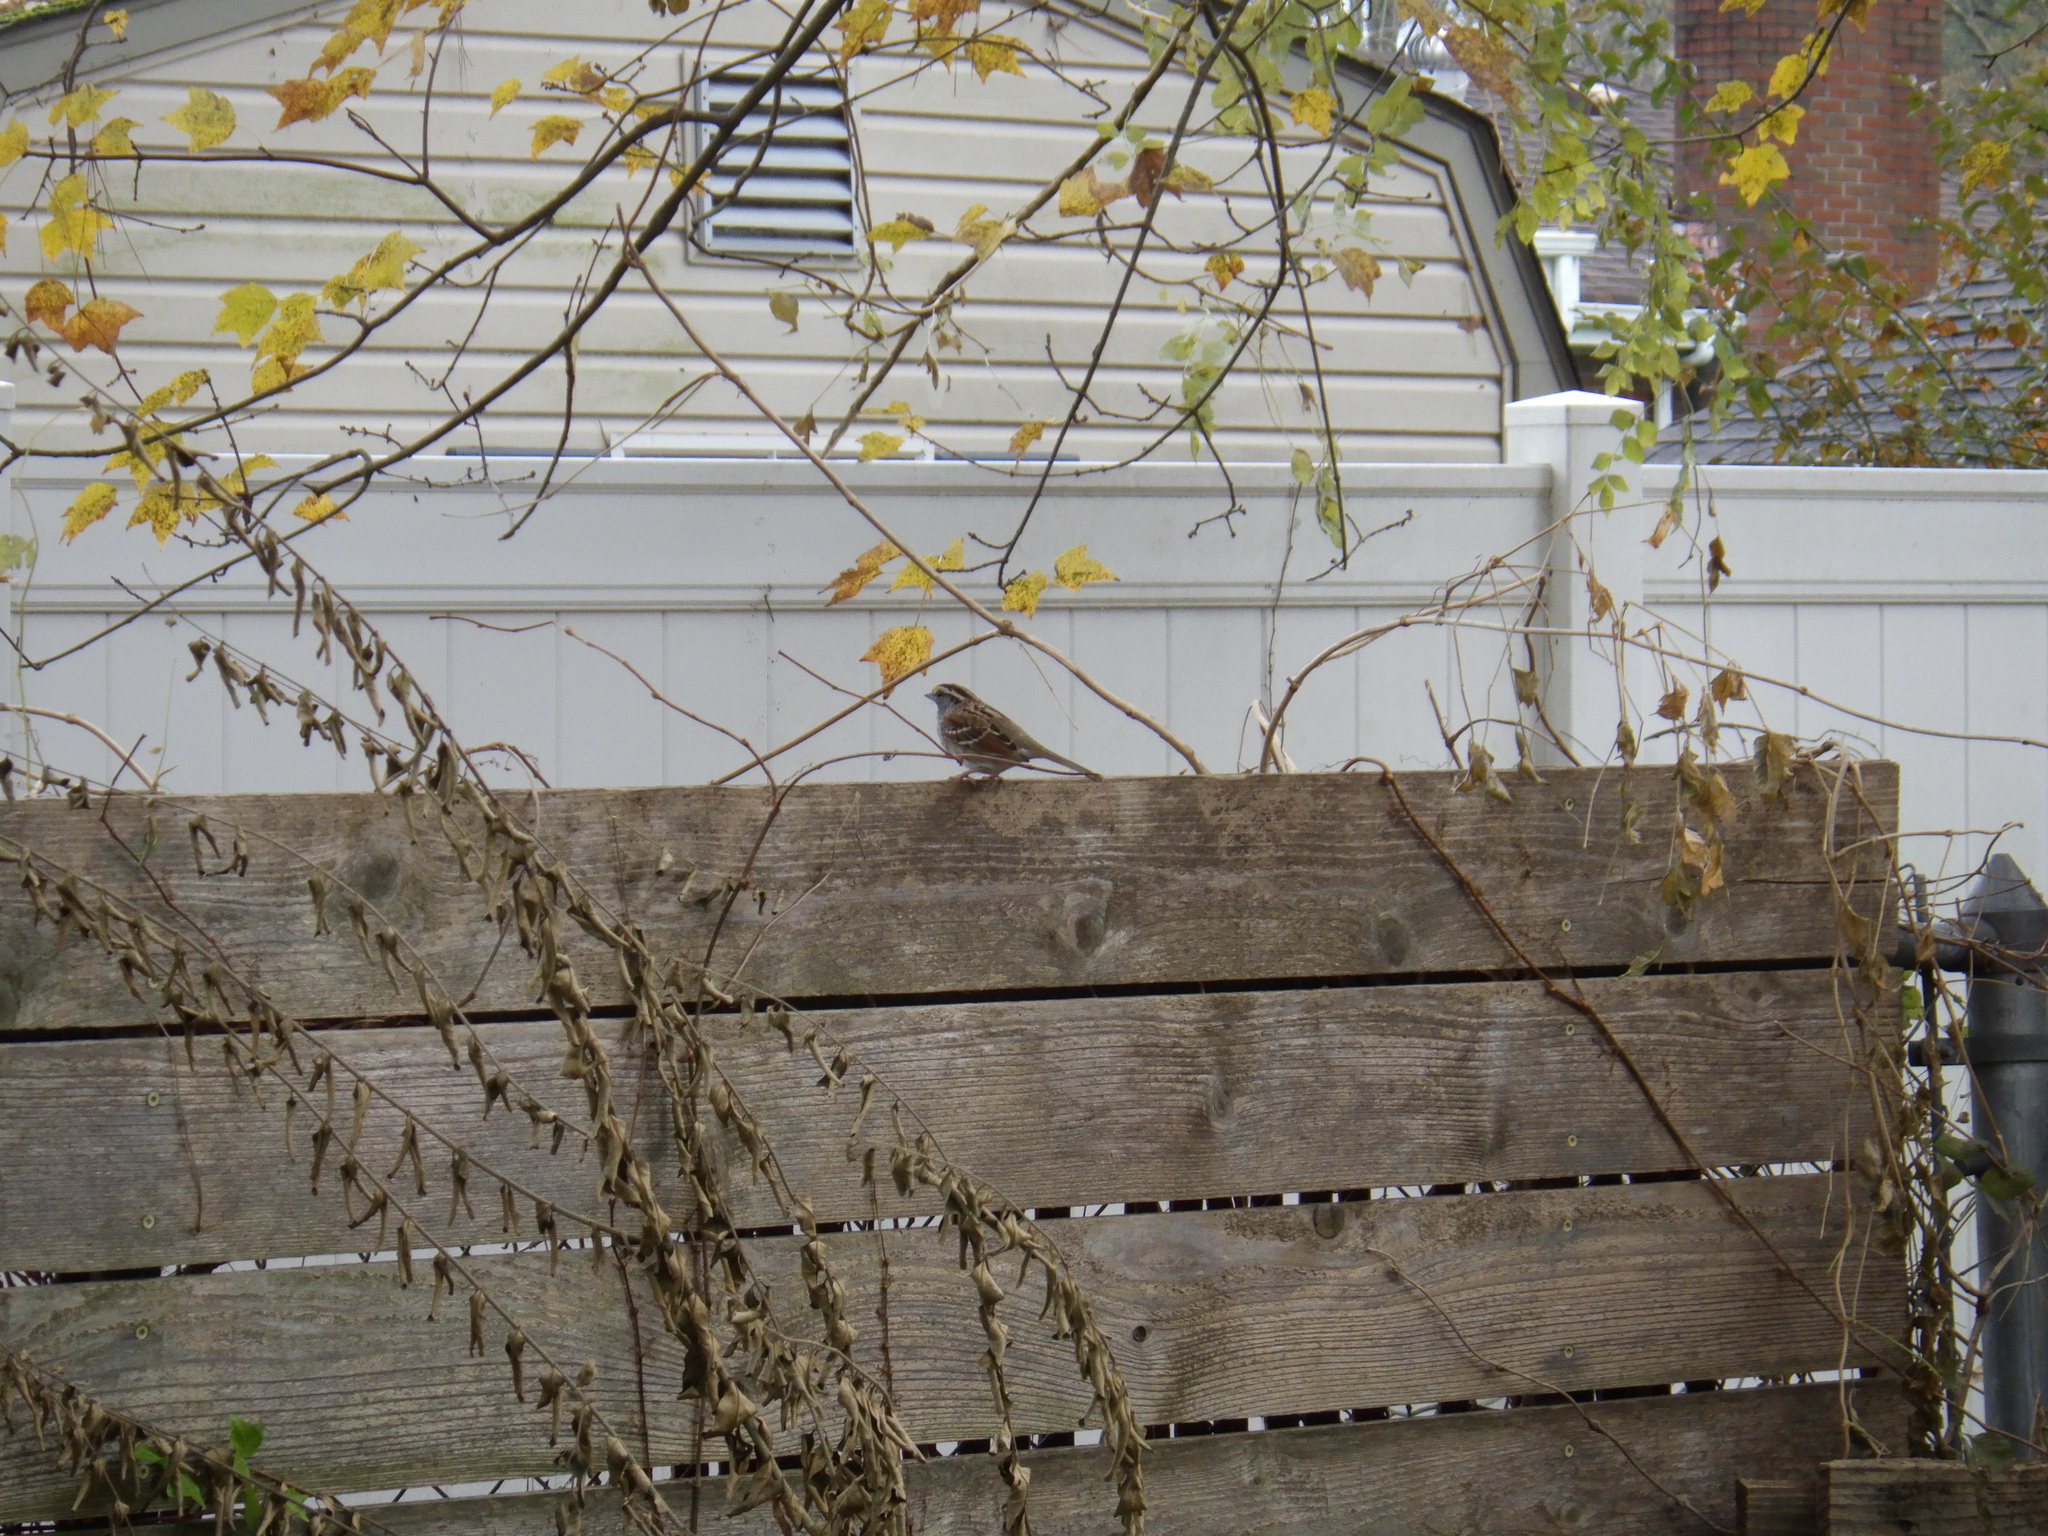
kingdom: Animalia
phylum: Chordata
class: Aves
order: Passeriformes
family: Passerellidae
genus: Zonotrichia
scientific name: Zonotrichia albicollis
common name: White-throated sparrow
